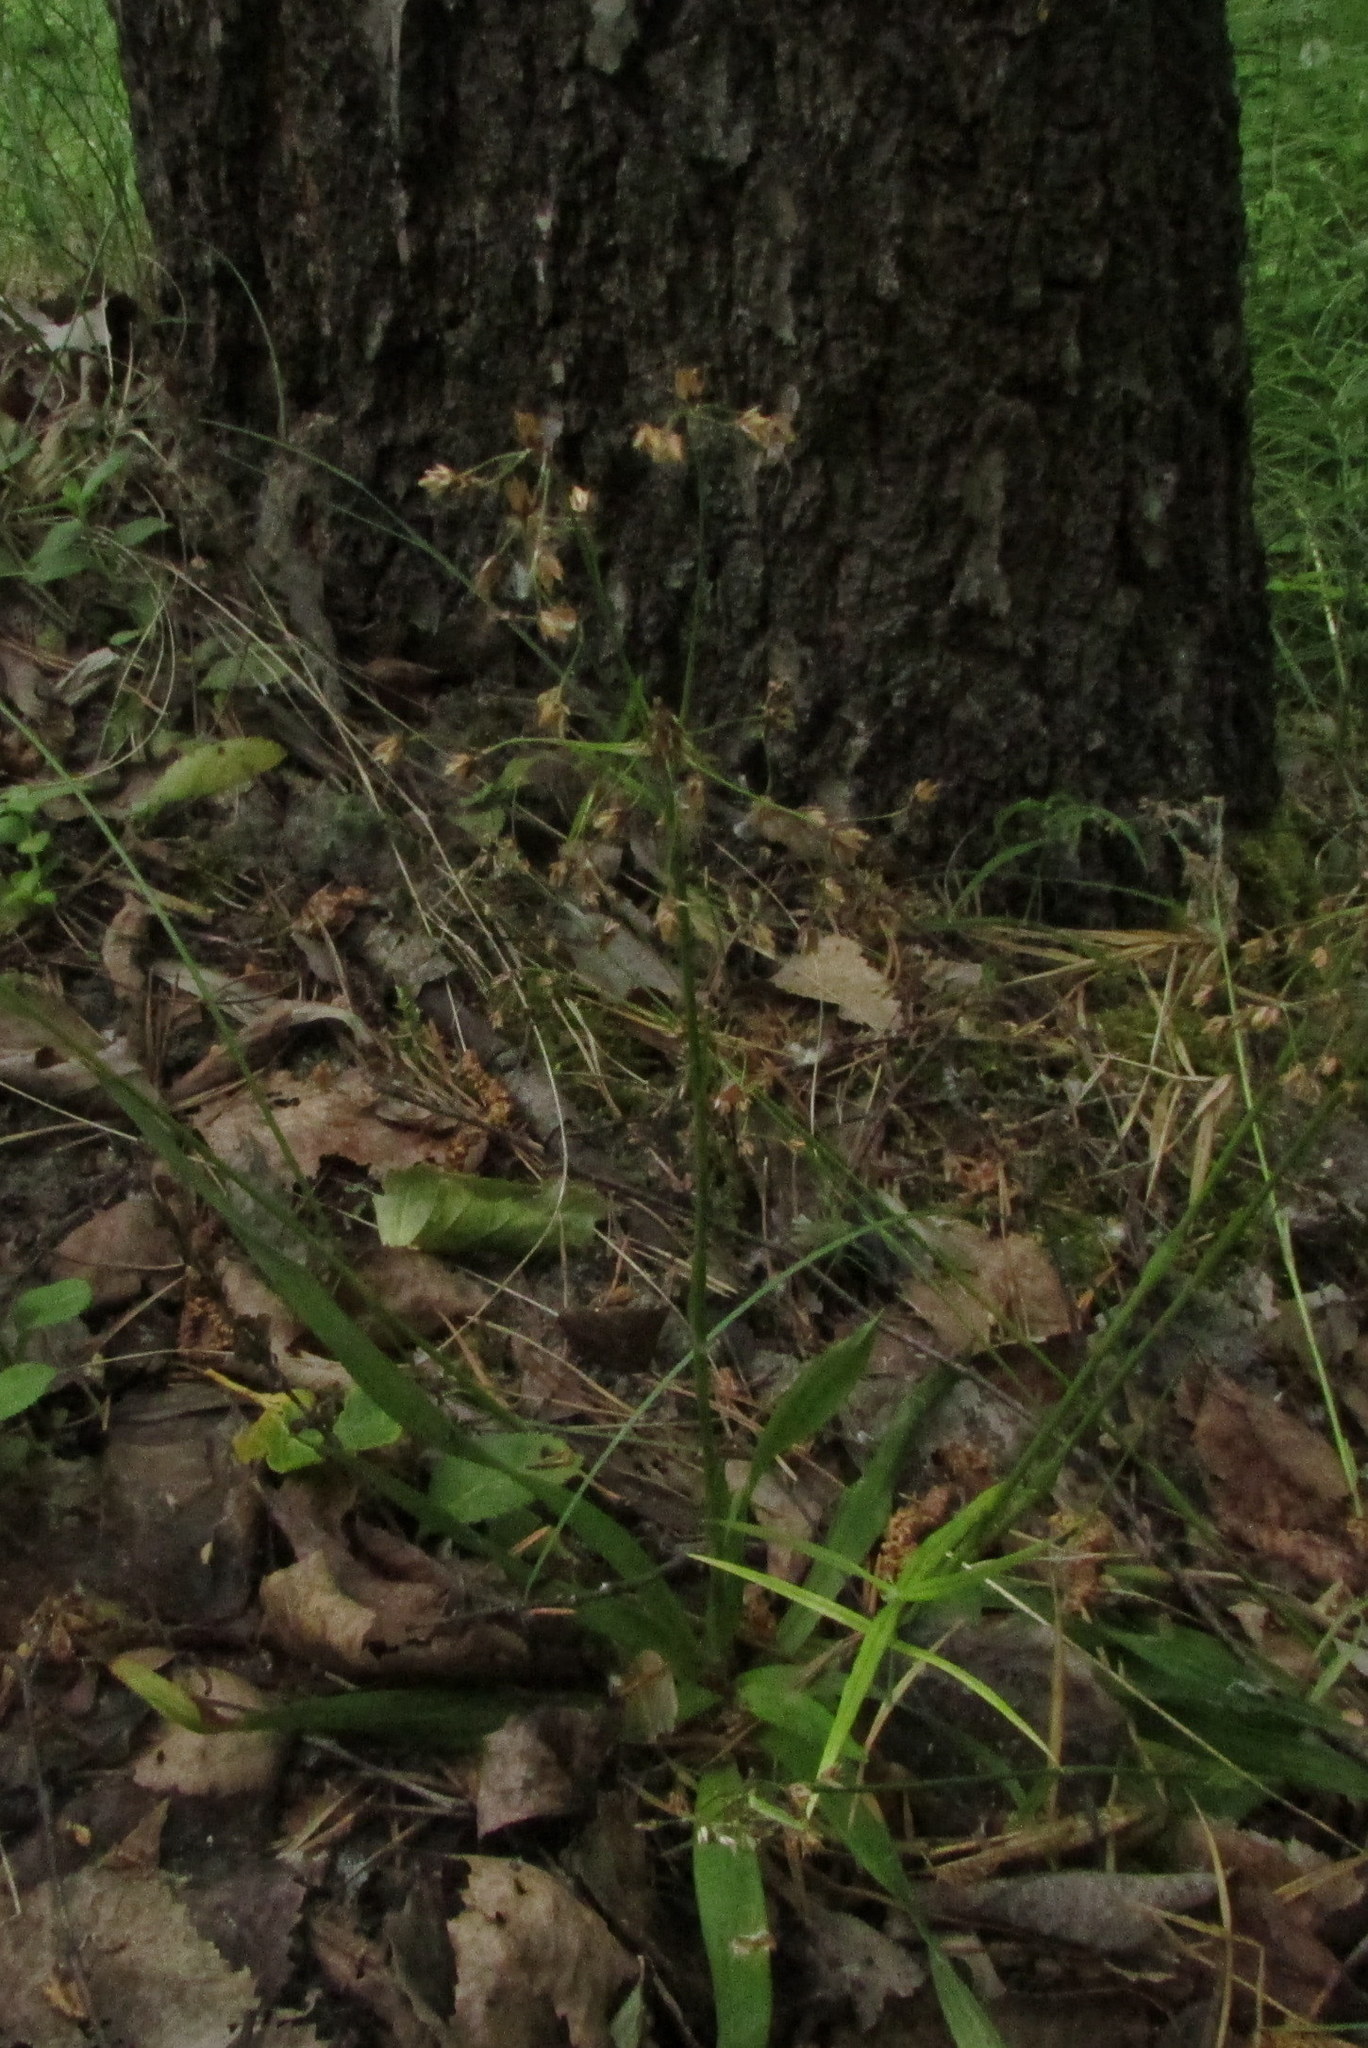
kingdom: Plantae
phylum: Tracheophyta
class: Liliopsida
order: Poales
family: Juncaceae
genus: Luzula
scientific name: Luzula pilosa
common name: Hairy wood-rush
